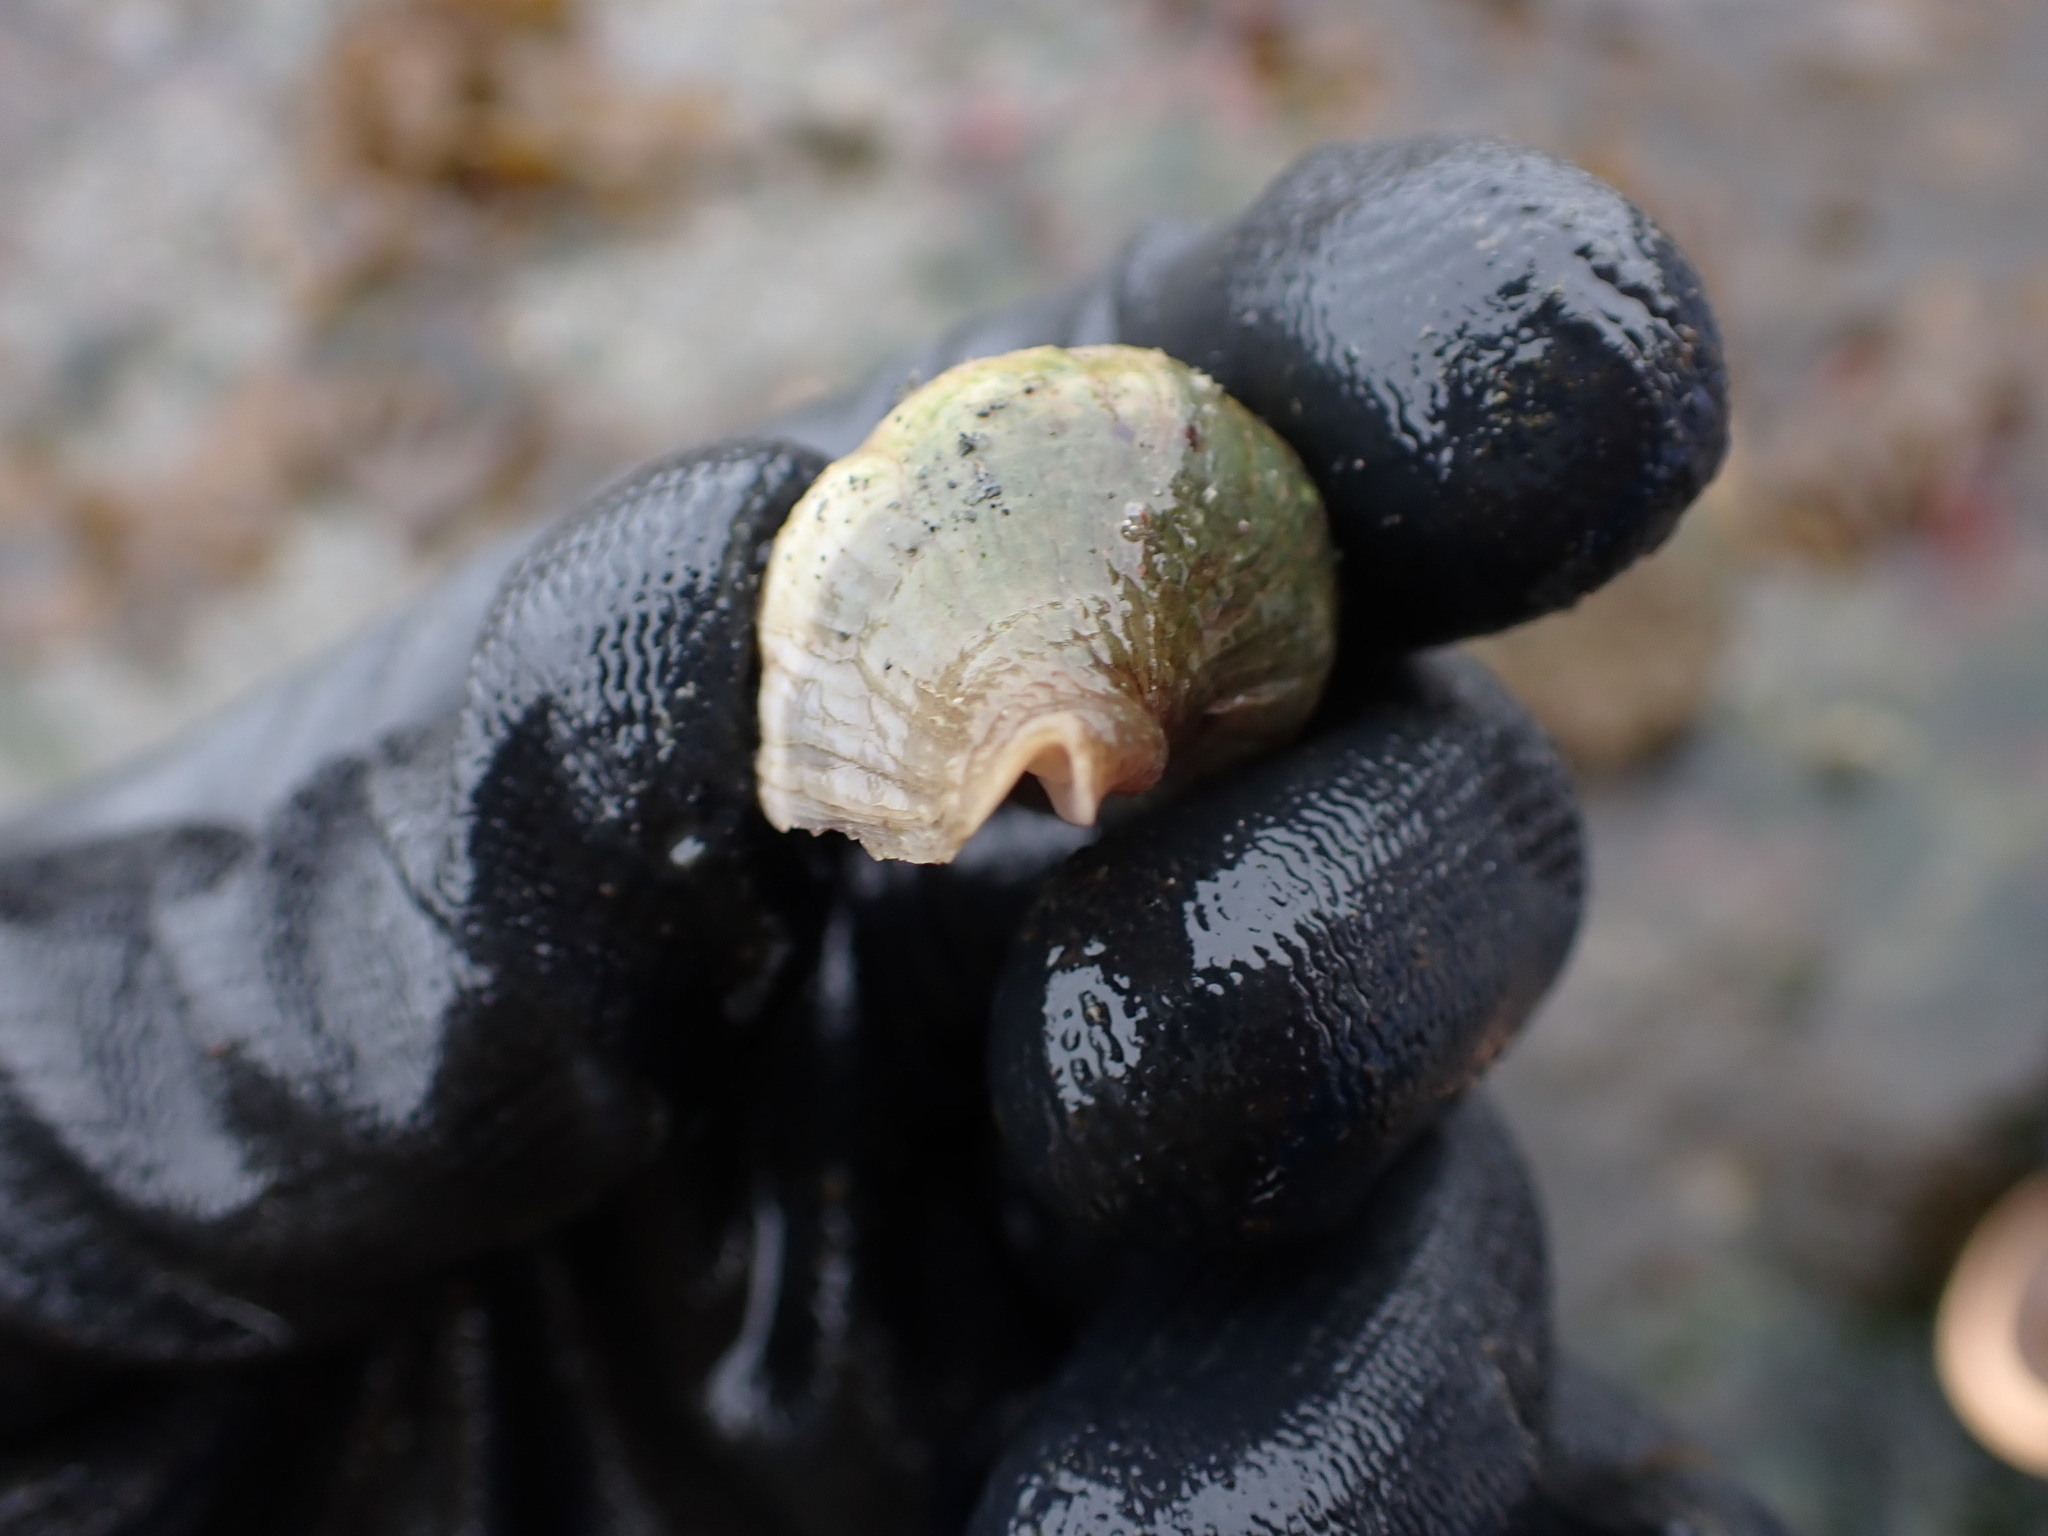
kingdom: Animalia
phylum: Mollusca
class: Gastropoda
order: Neogastropoda
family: Muricidae
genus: Nucella
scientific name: Nucella lamellosa
